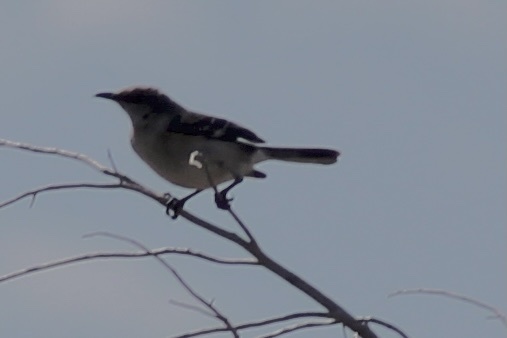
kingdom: Animalia
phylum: Chordata
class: Aves
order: Passeriformes
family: Mimidae
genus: Mimus
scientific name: Mimus polyglottos
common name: Northern mockingbird
